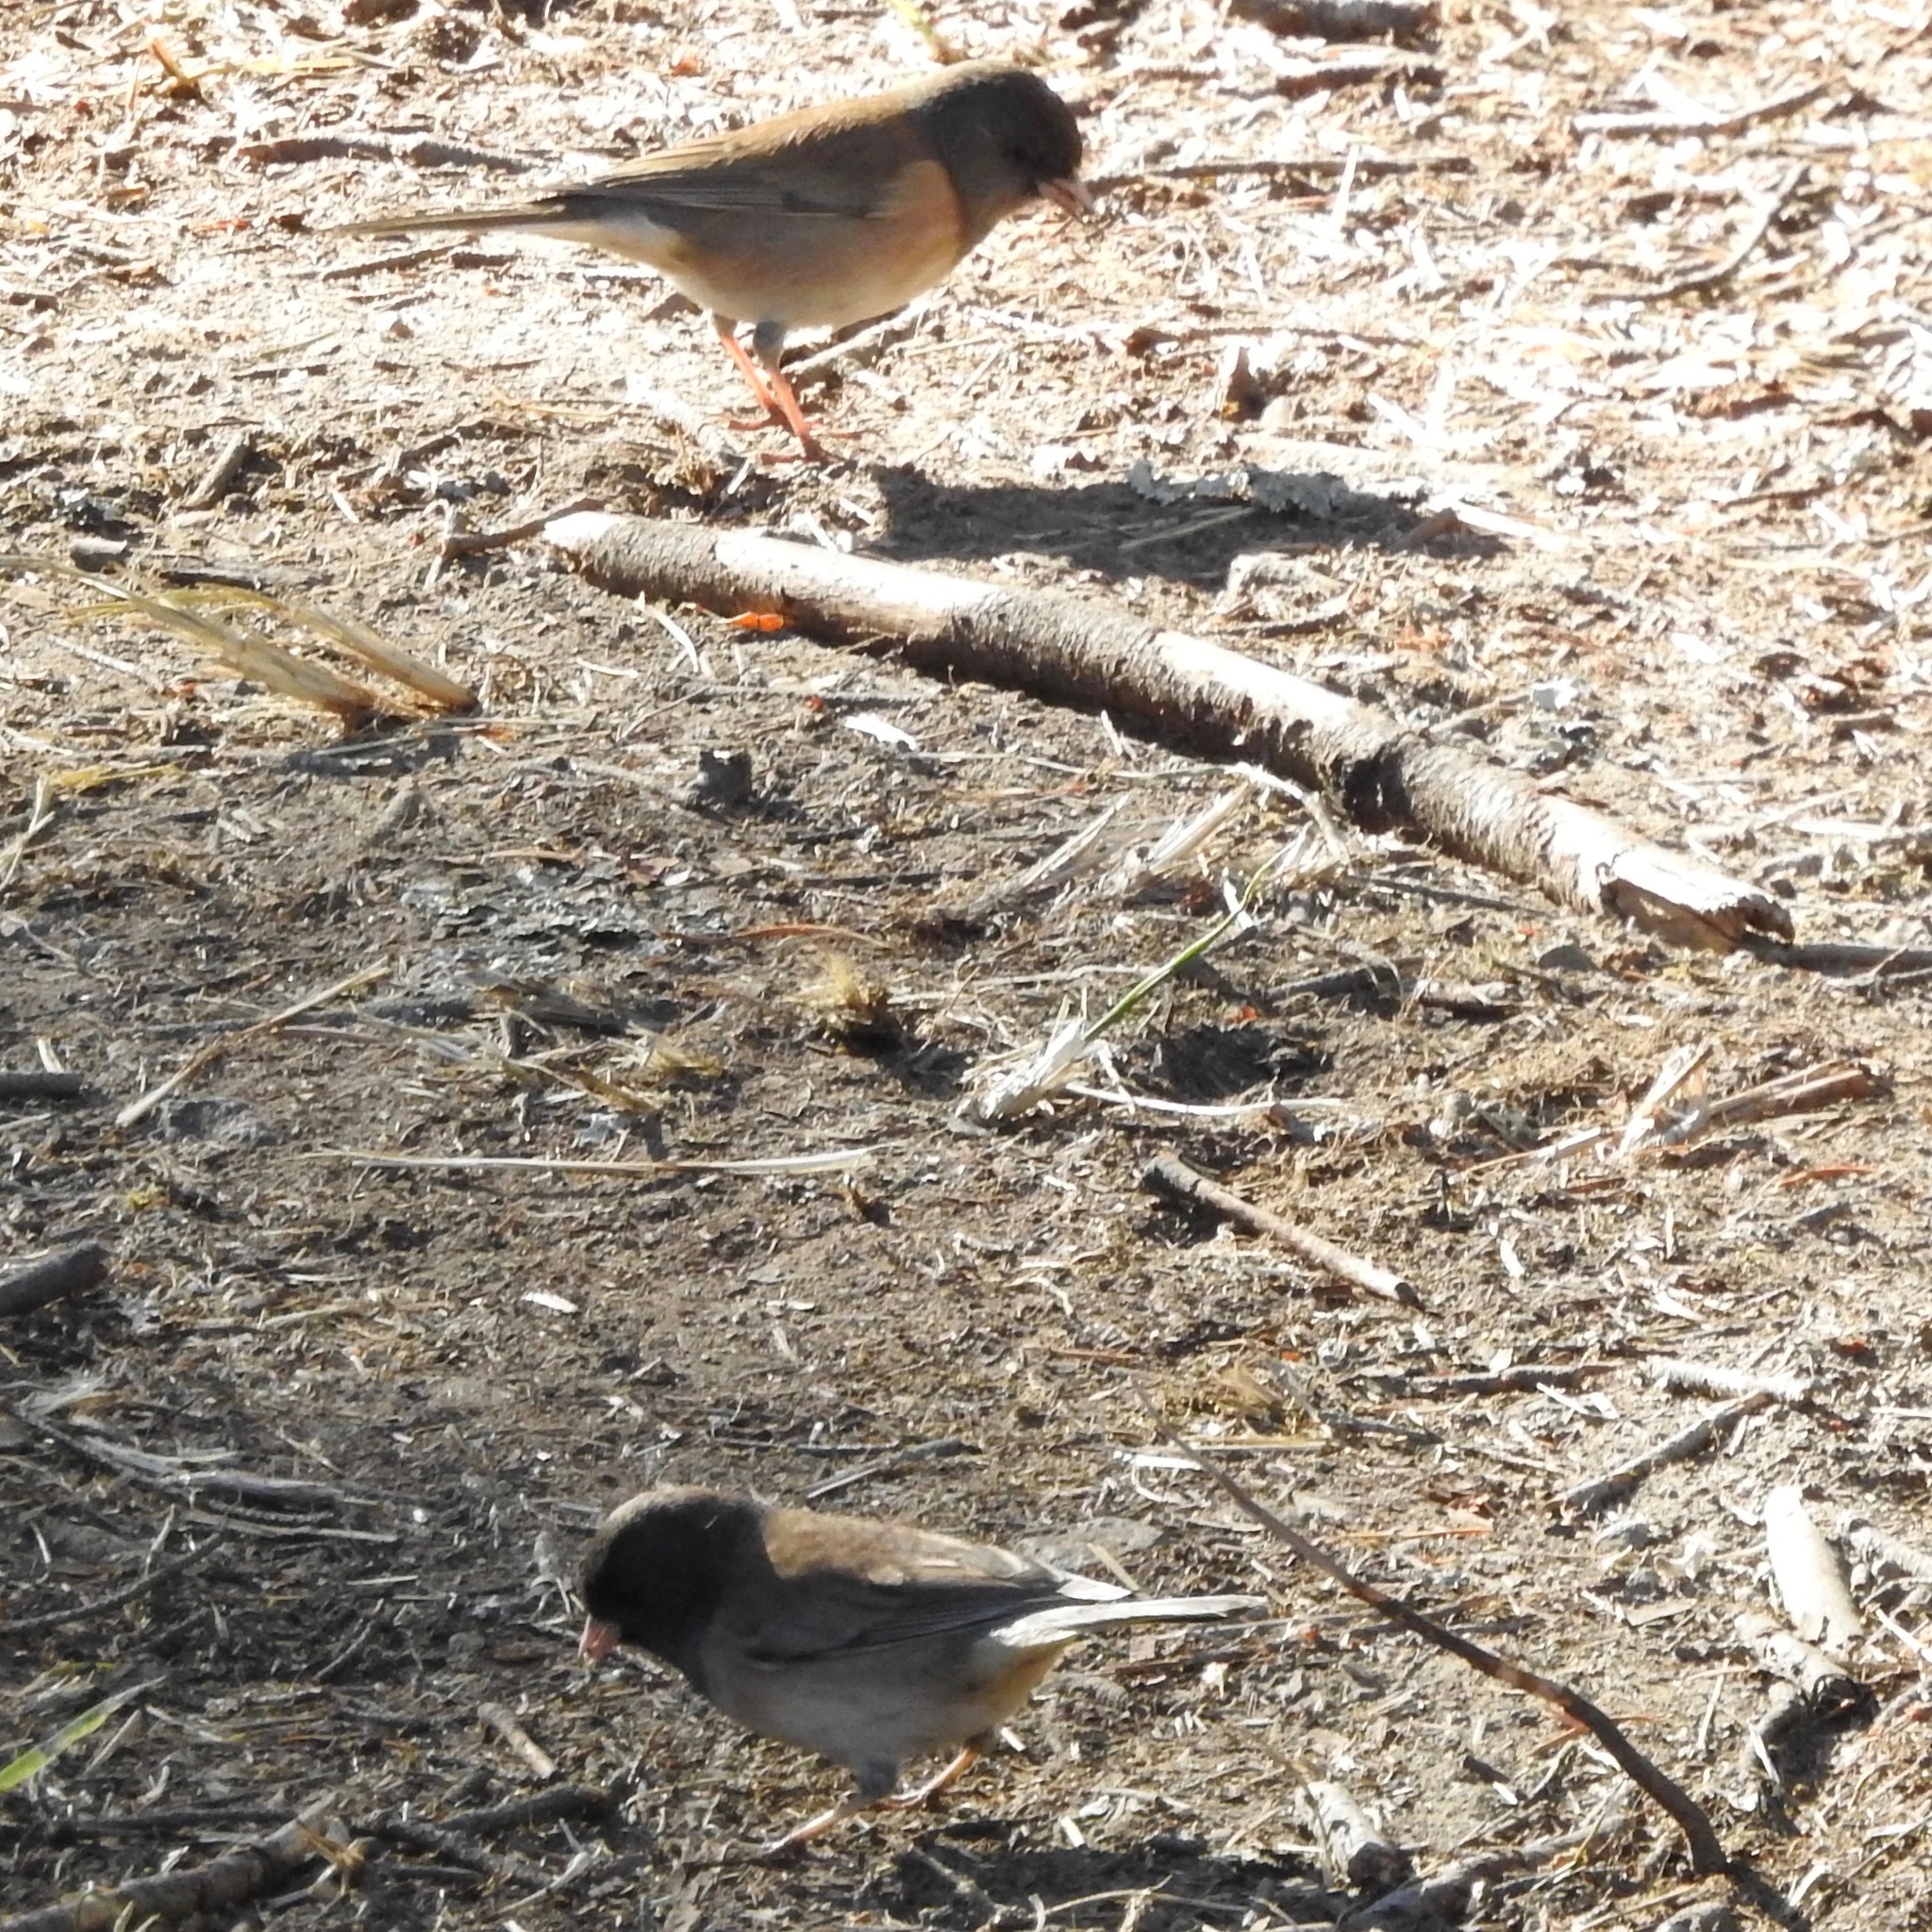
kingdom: Animalia
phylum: Chordata
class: Aves
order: Passeriformes
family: Passerellidae
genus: Junco
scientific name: Junco hyemalis
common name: Dark-eyed junco
